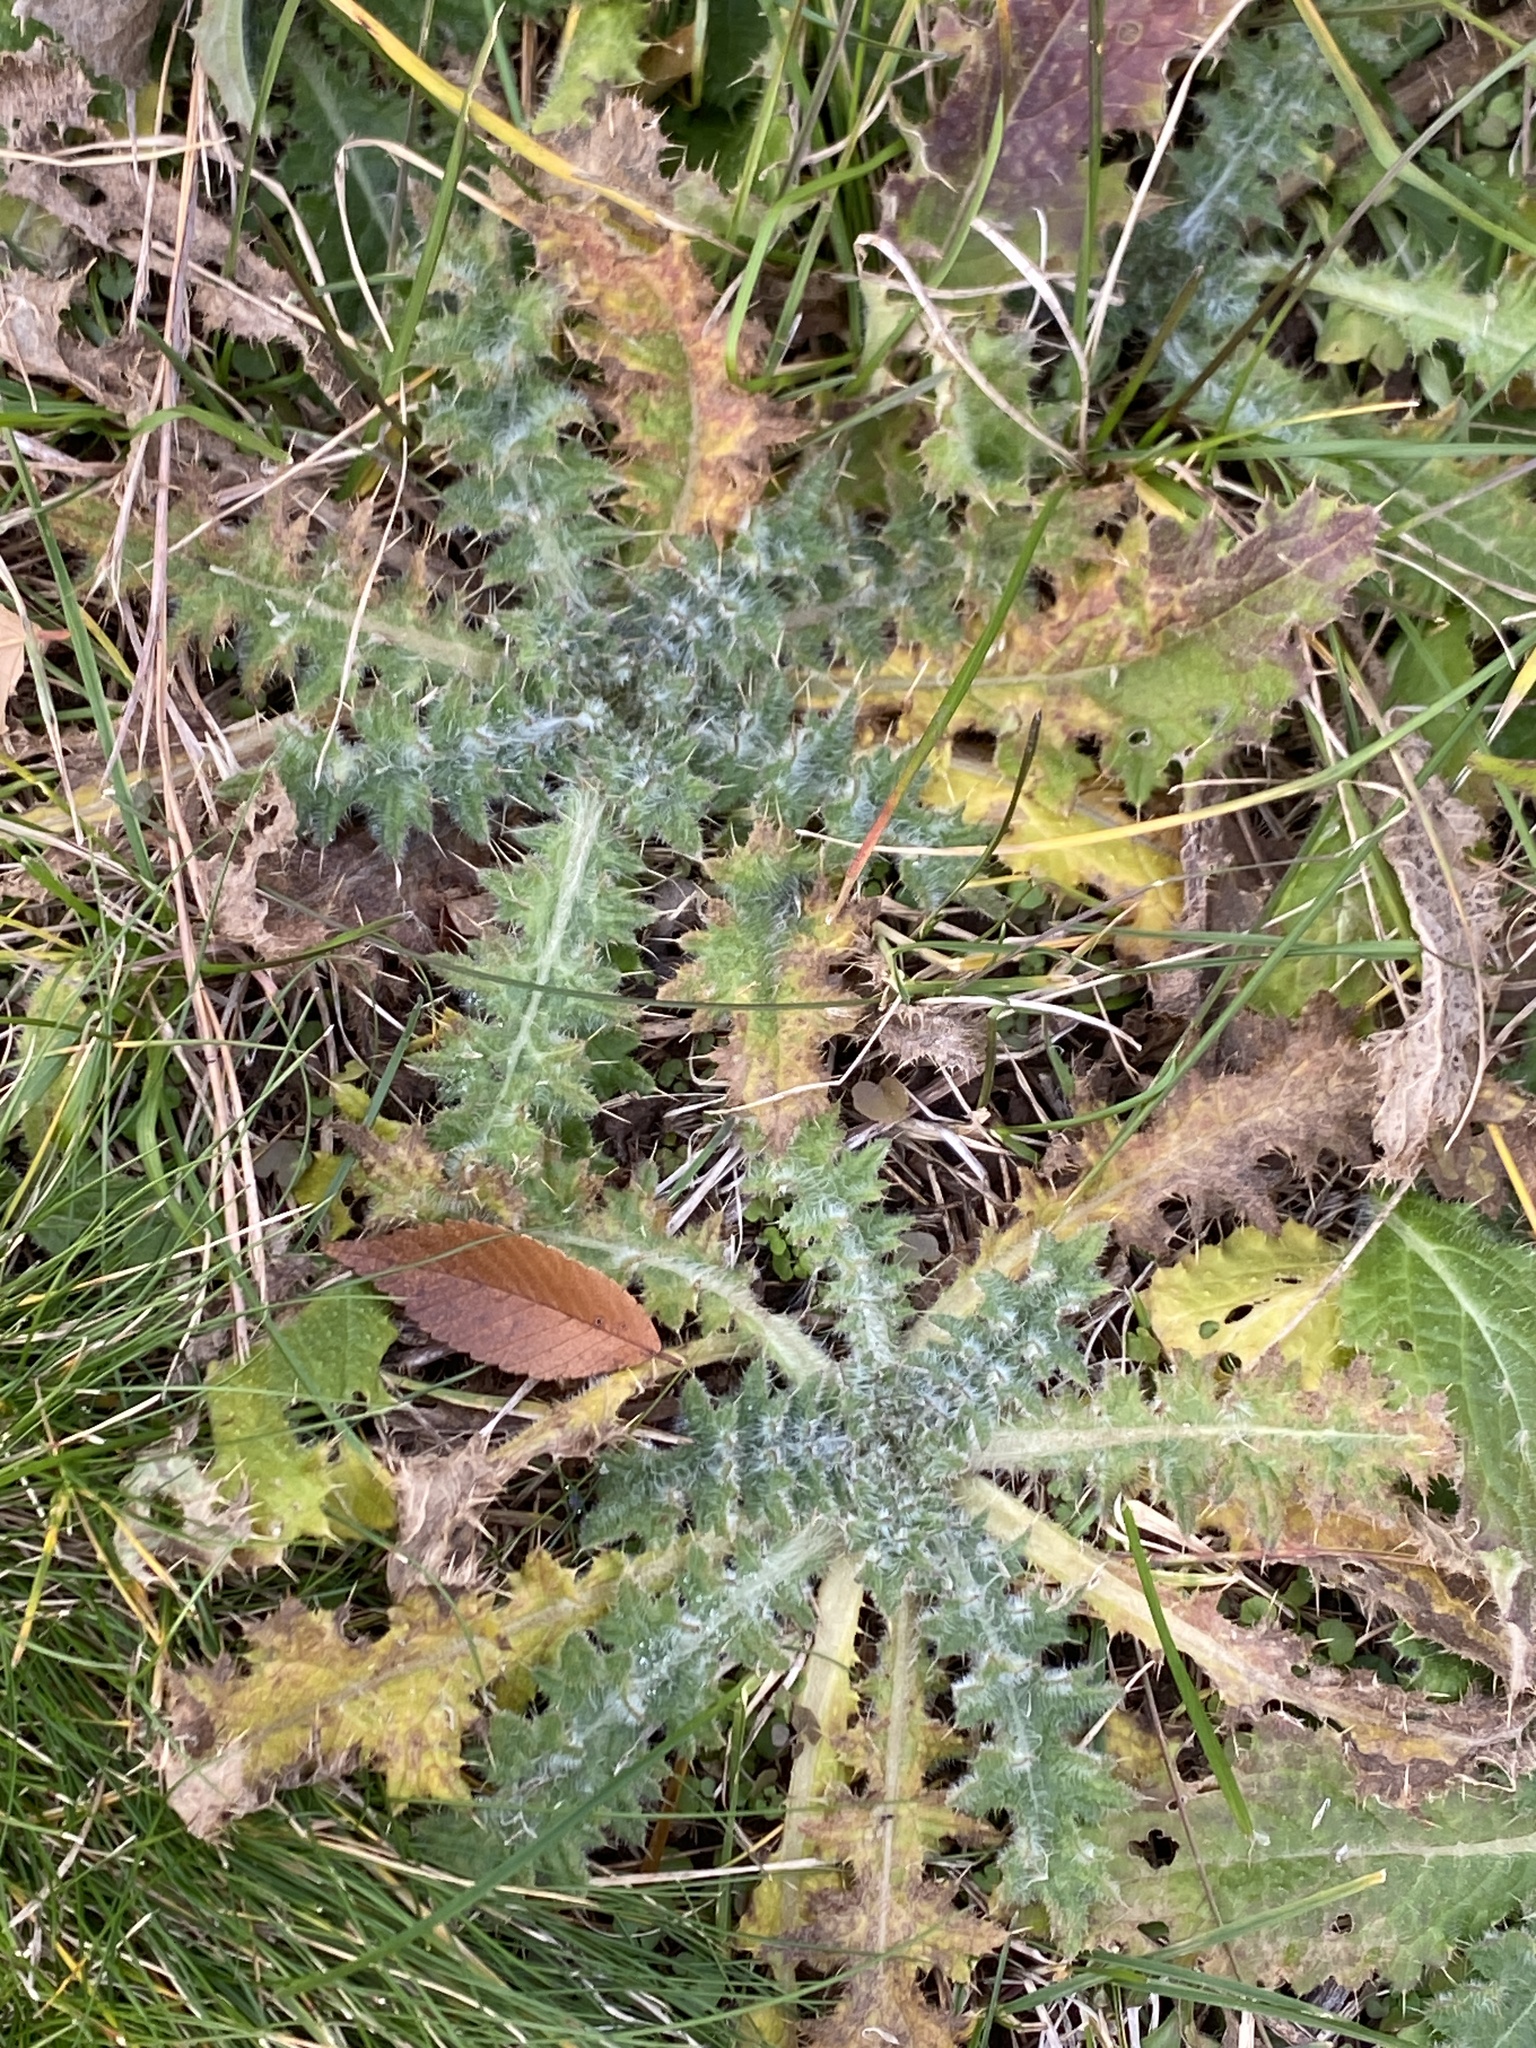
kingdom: Plantae
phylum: Tracheophyta
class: Magnoliopsida
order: Asterales
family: Asteraceae
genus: Cirsium
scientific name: Cirsium vulgare
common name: Bull thistle
